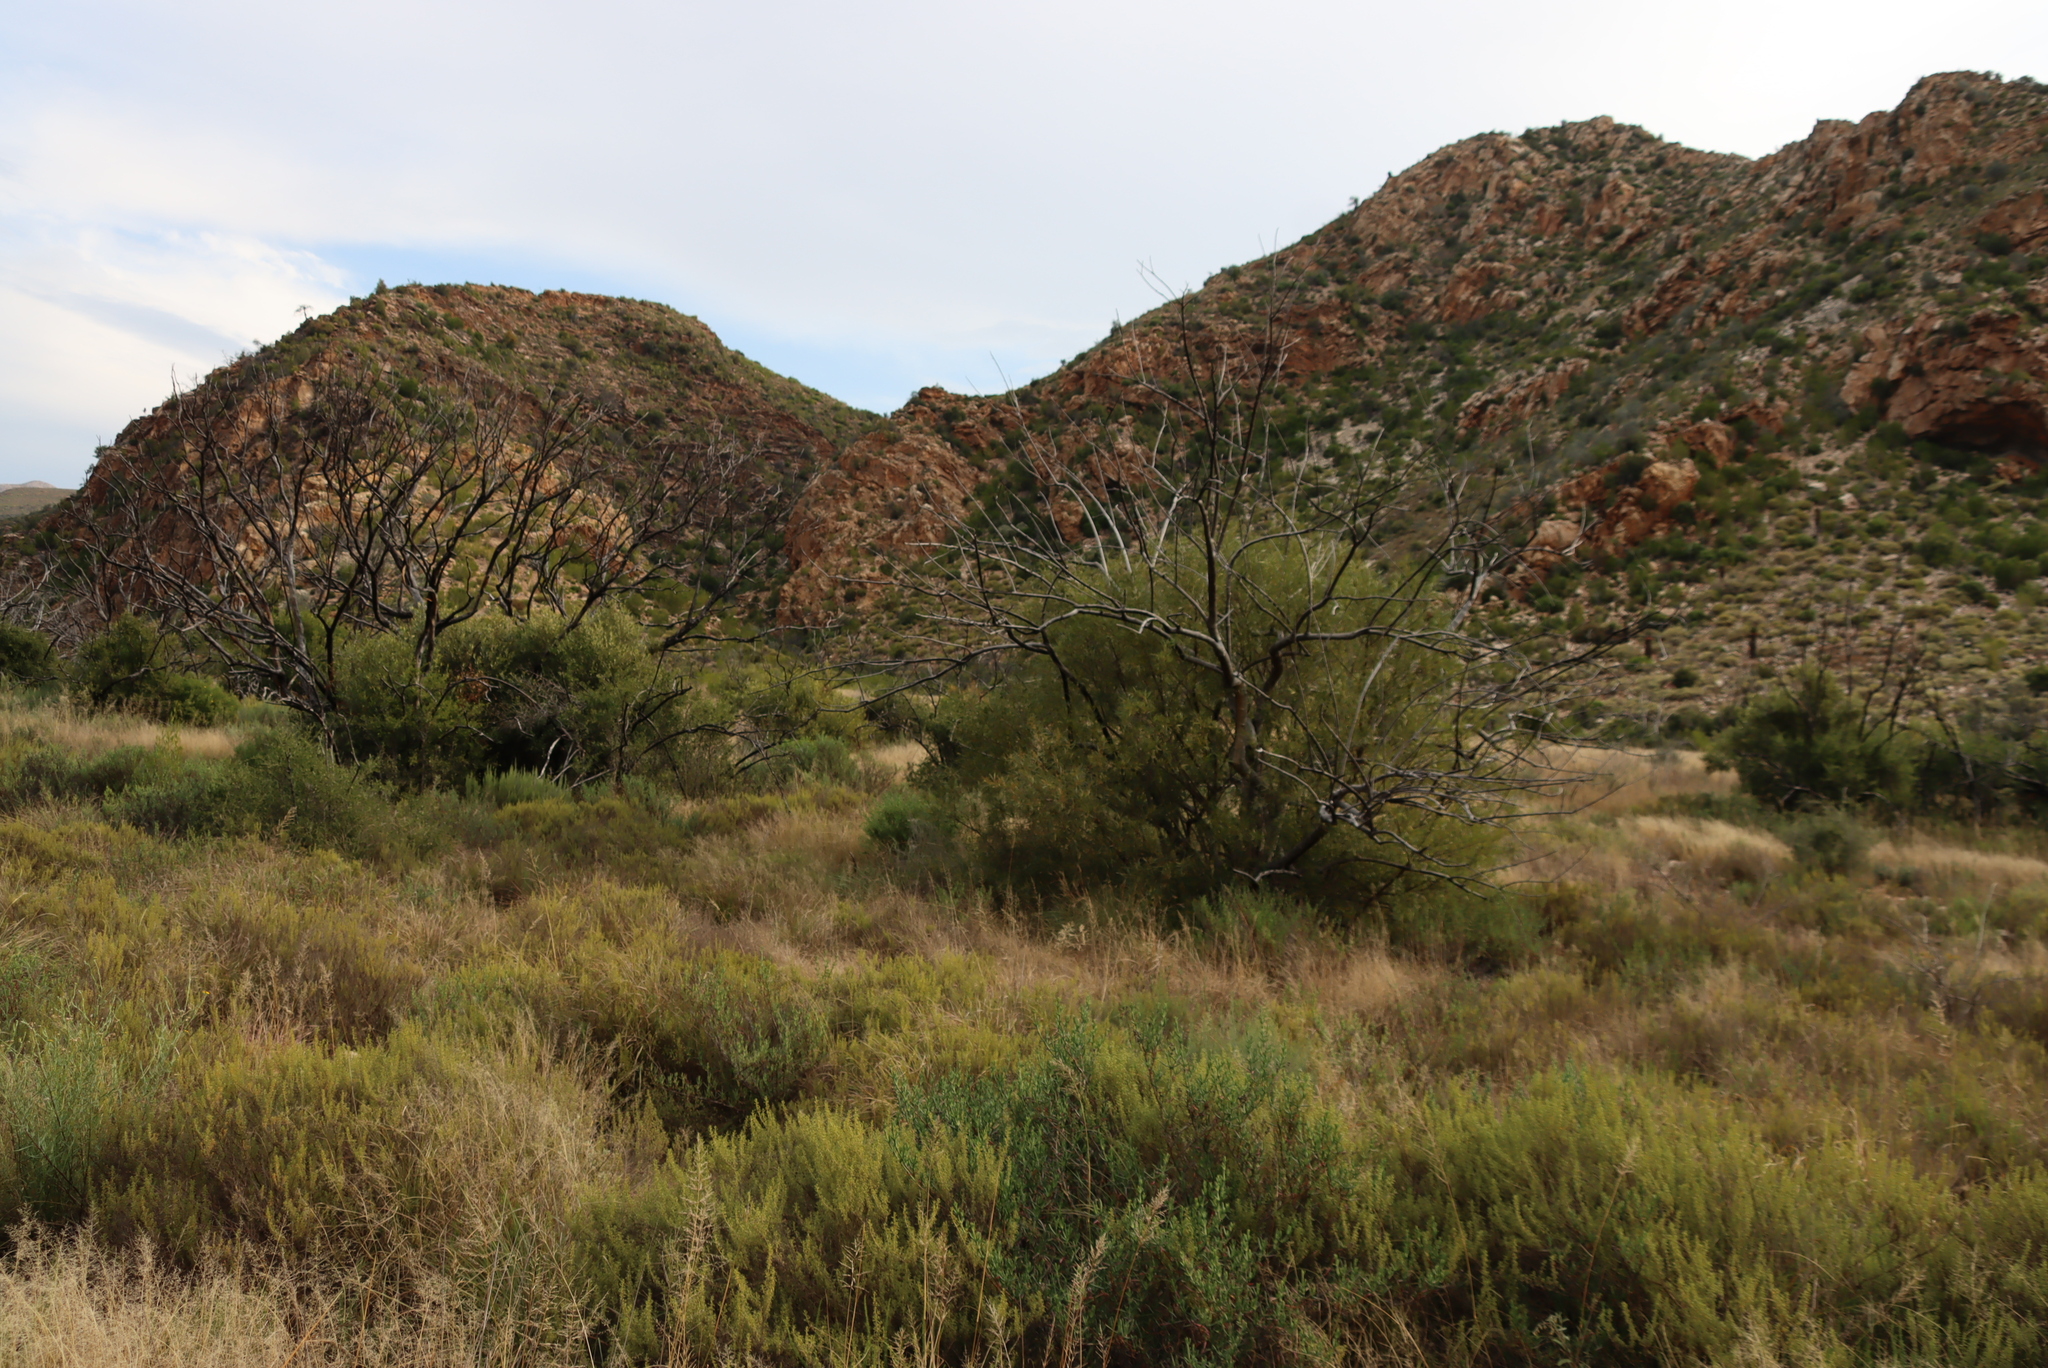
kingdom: Plantae
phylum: Tracheophyta
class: Magnoliopsida
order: Sapindales
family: Anacardiaceae
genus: Searsia
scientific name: Searsia lancea
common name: Cashew
